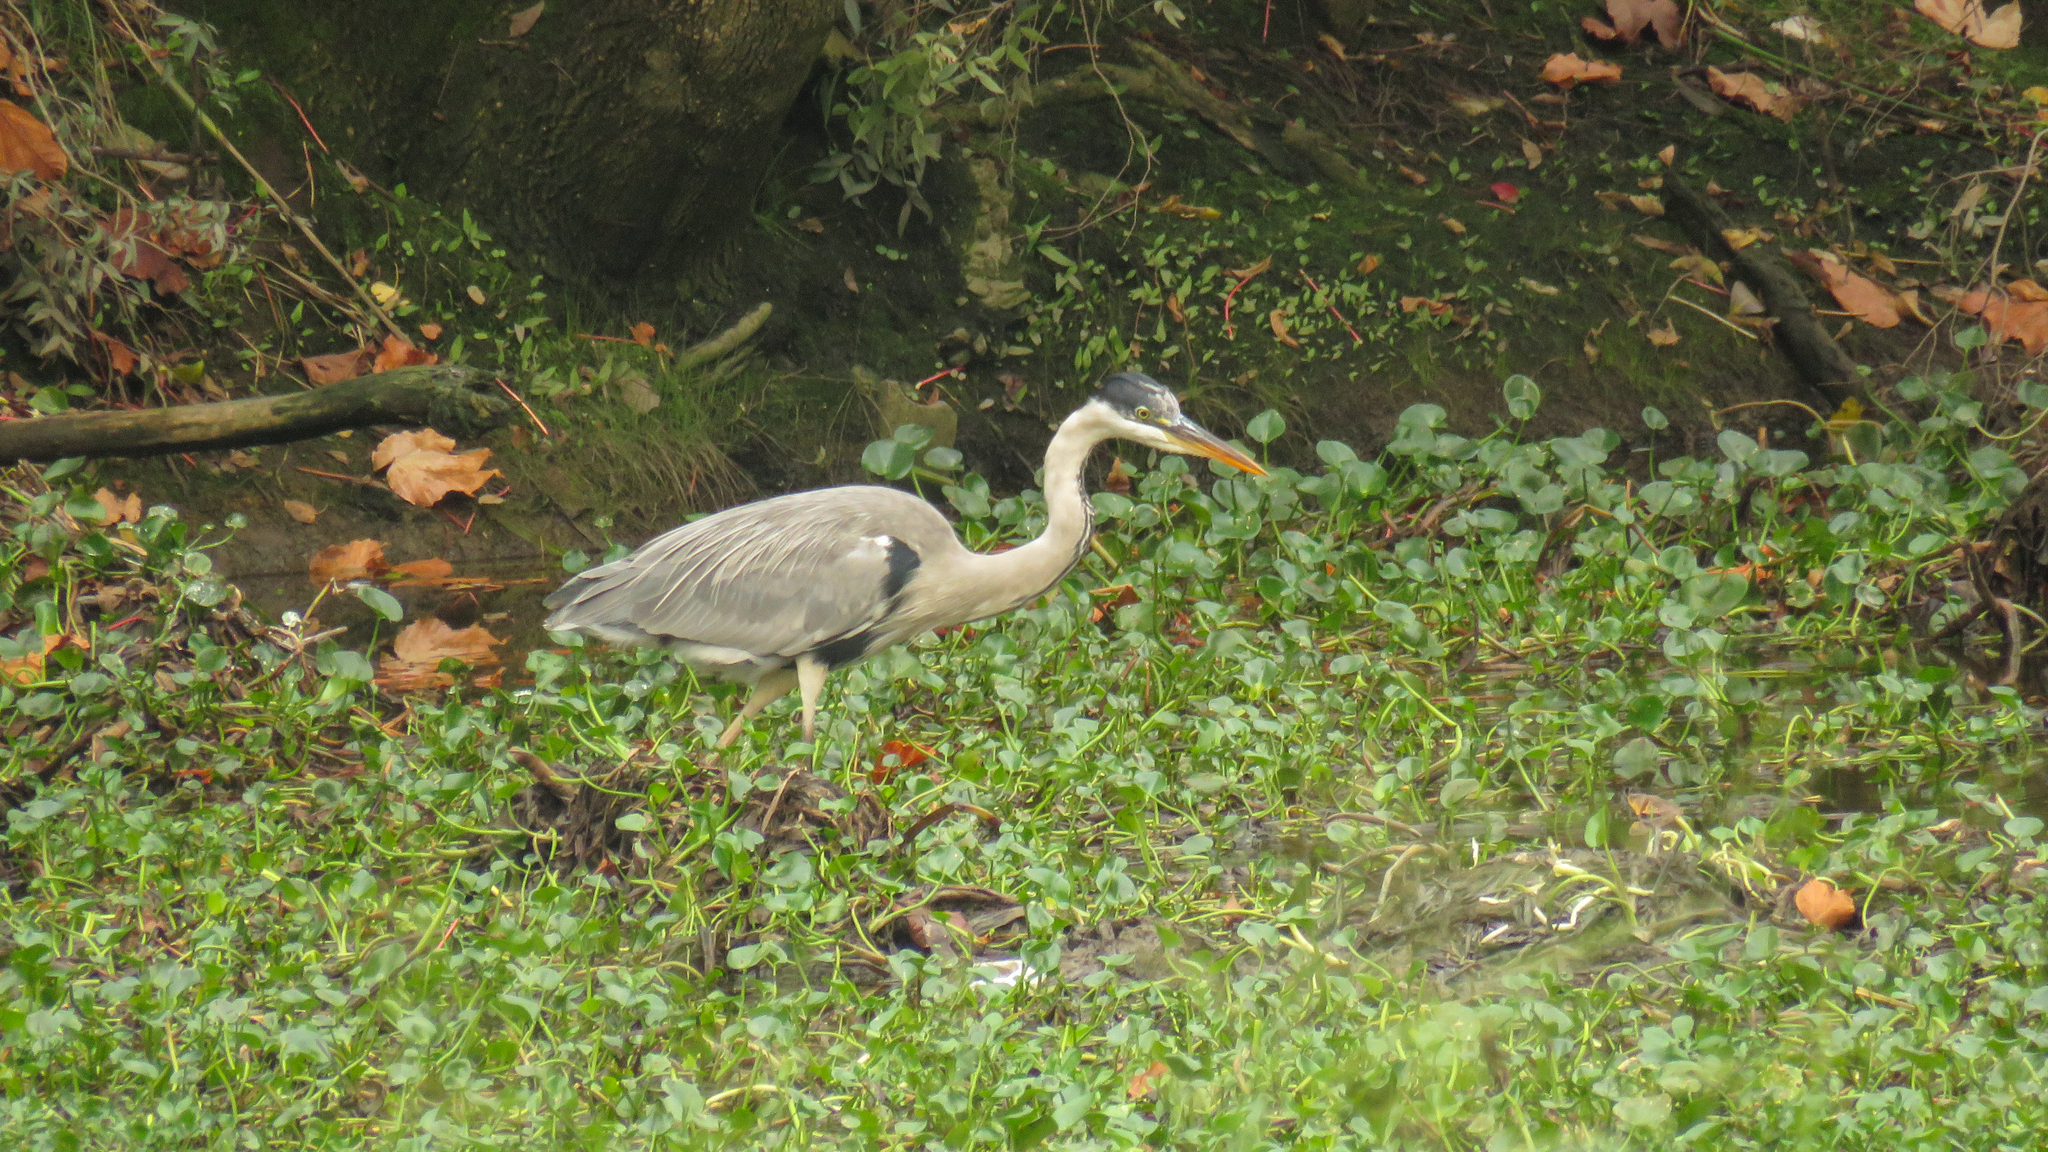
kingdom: Animalia
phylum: Chordata
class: Aves
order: Pelecaniformes
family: Ardeidae
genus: Ardea
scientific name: Ardea cocoi
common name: Cocoi heron
